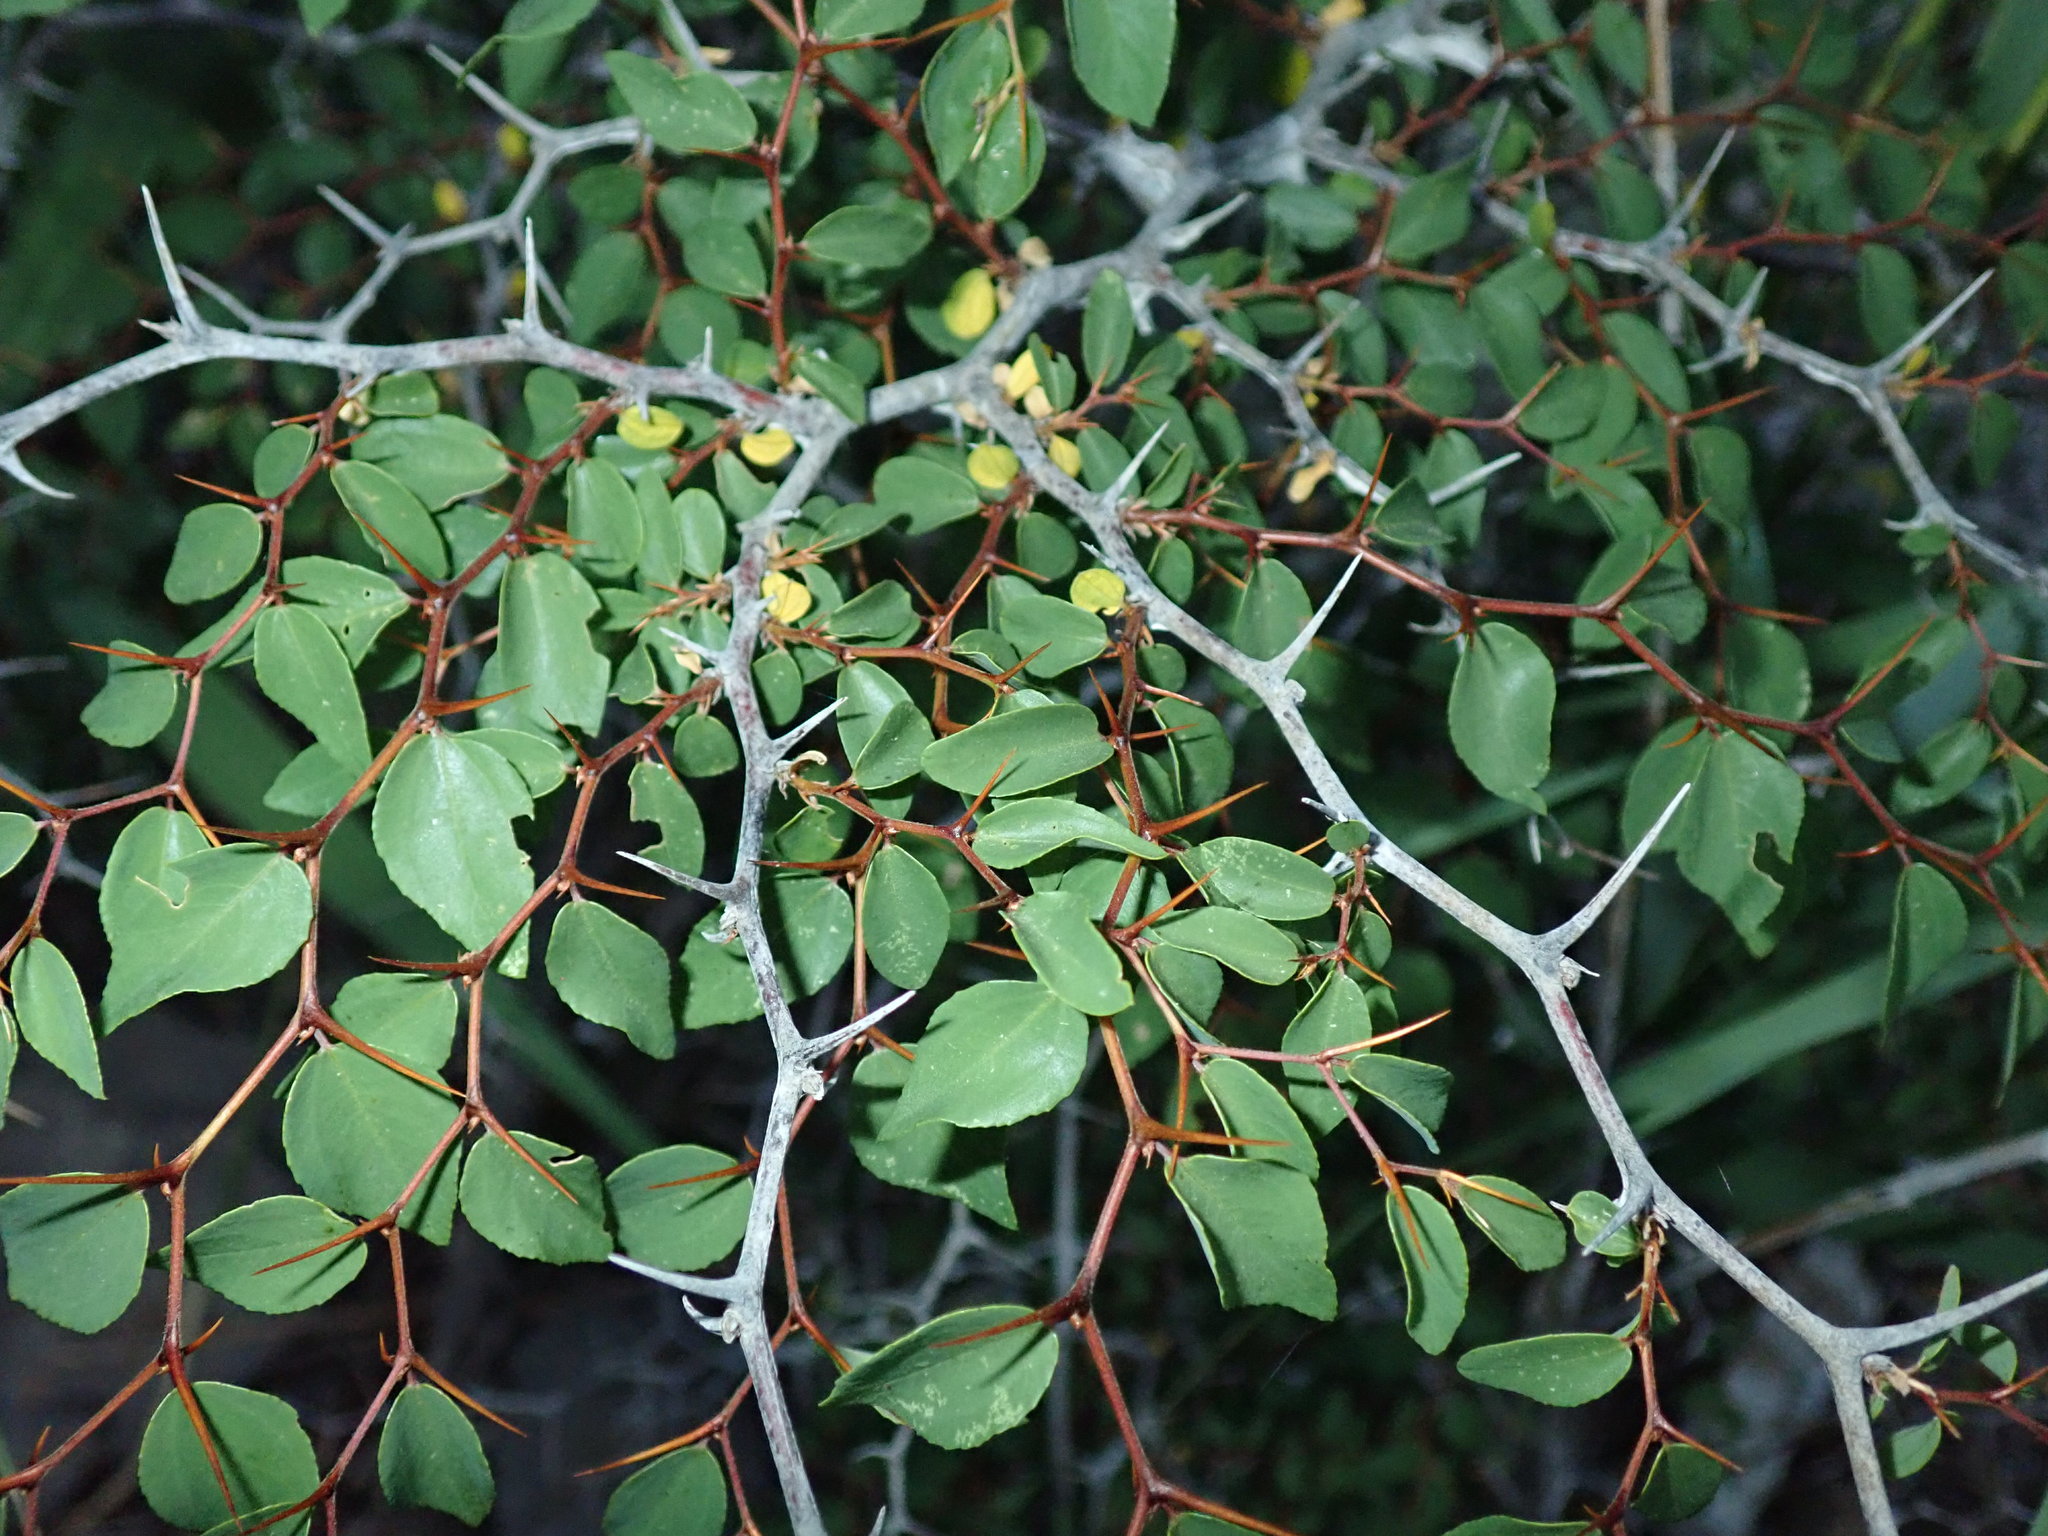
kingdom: Plantae
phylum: Tracheophyta
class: Magnoliopsida
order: Rosales
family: Rhamnaceae
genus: Paliurus
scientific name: Paliurus spina-christi
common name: Jeruselem thorn
